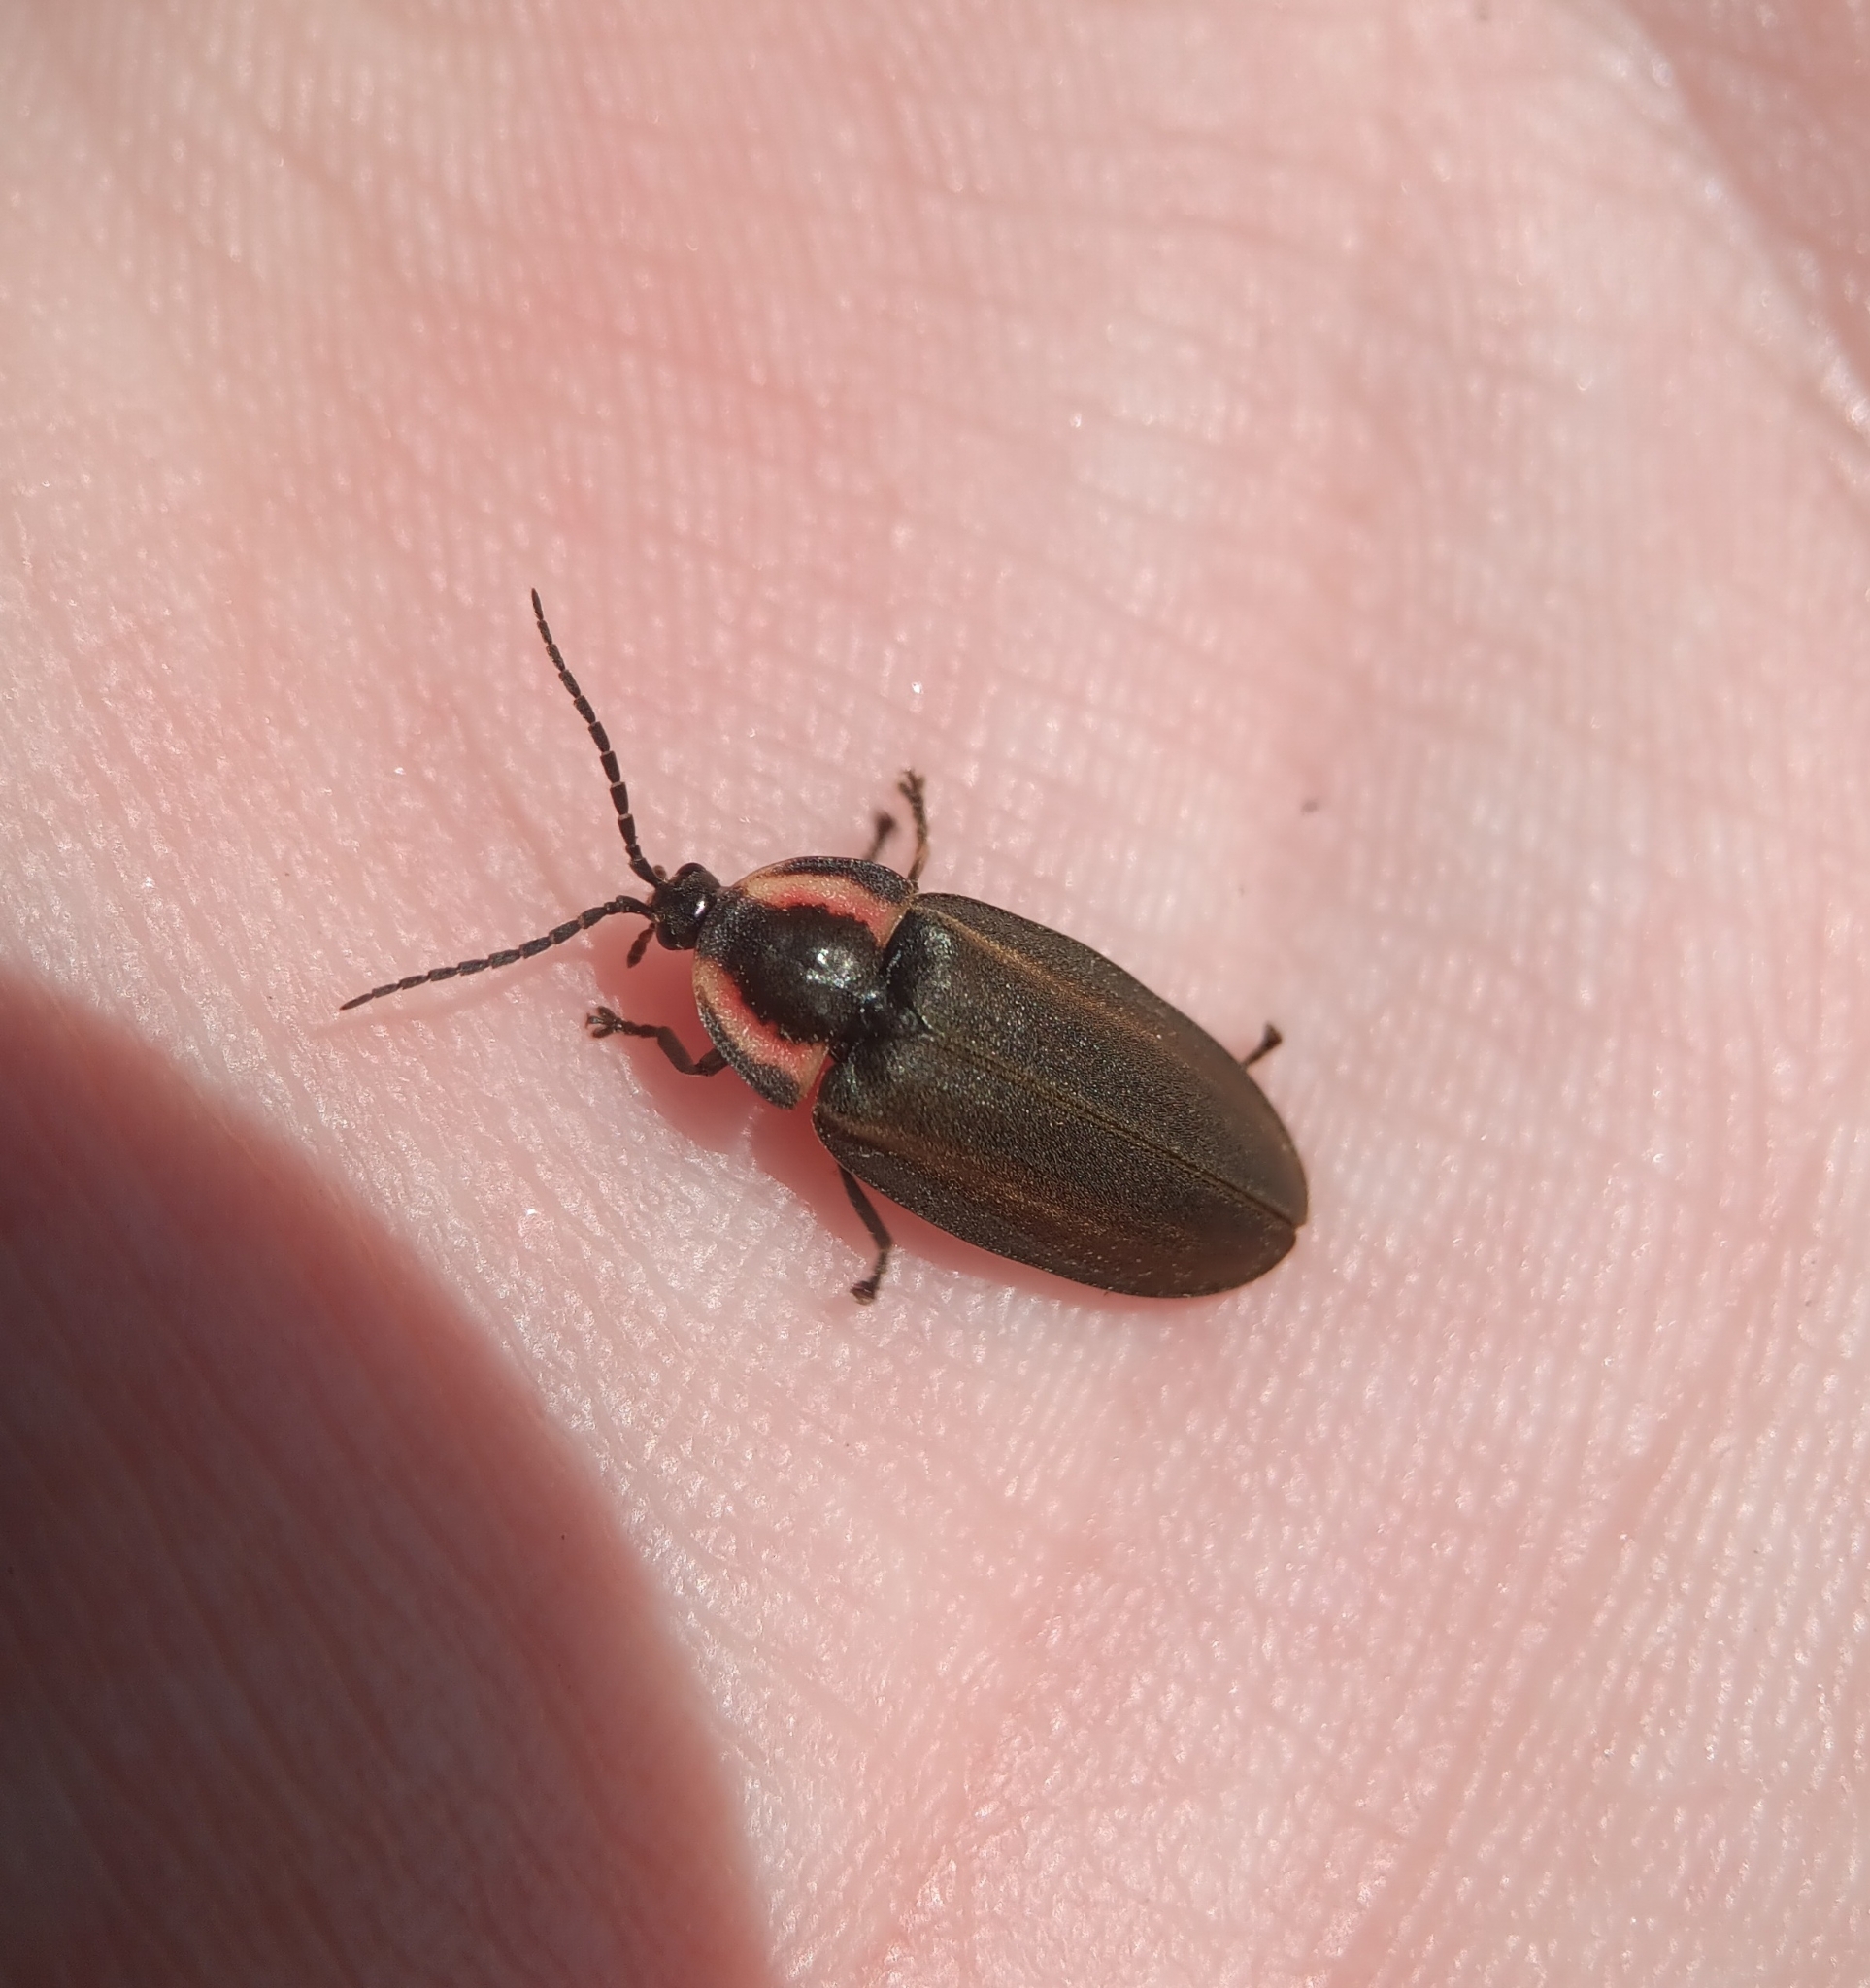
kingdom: Animalia
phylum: Arthropoda
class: Insecta
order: Coleoptera
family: Lampyridae
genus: Photinus
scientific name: Photinus corrusca
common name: Winter firefly
